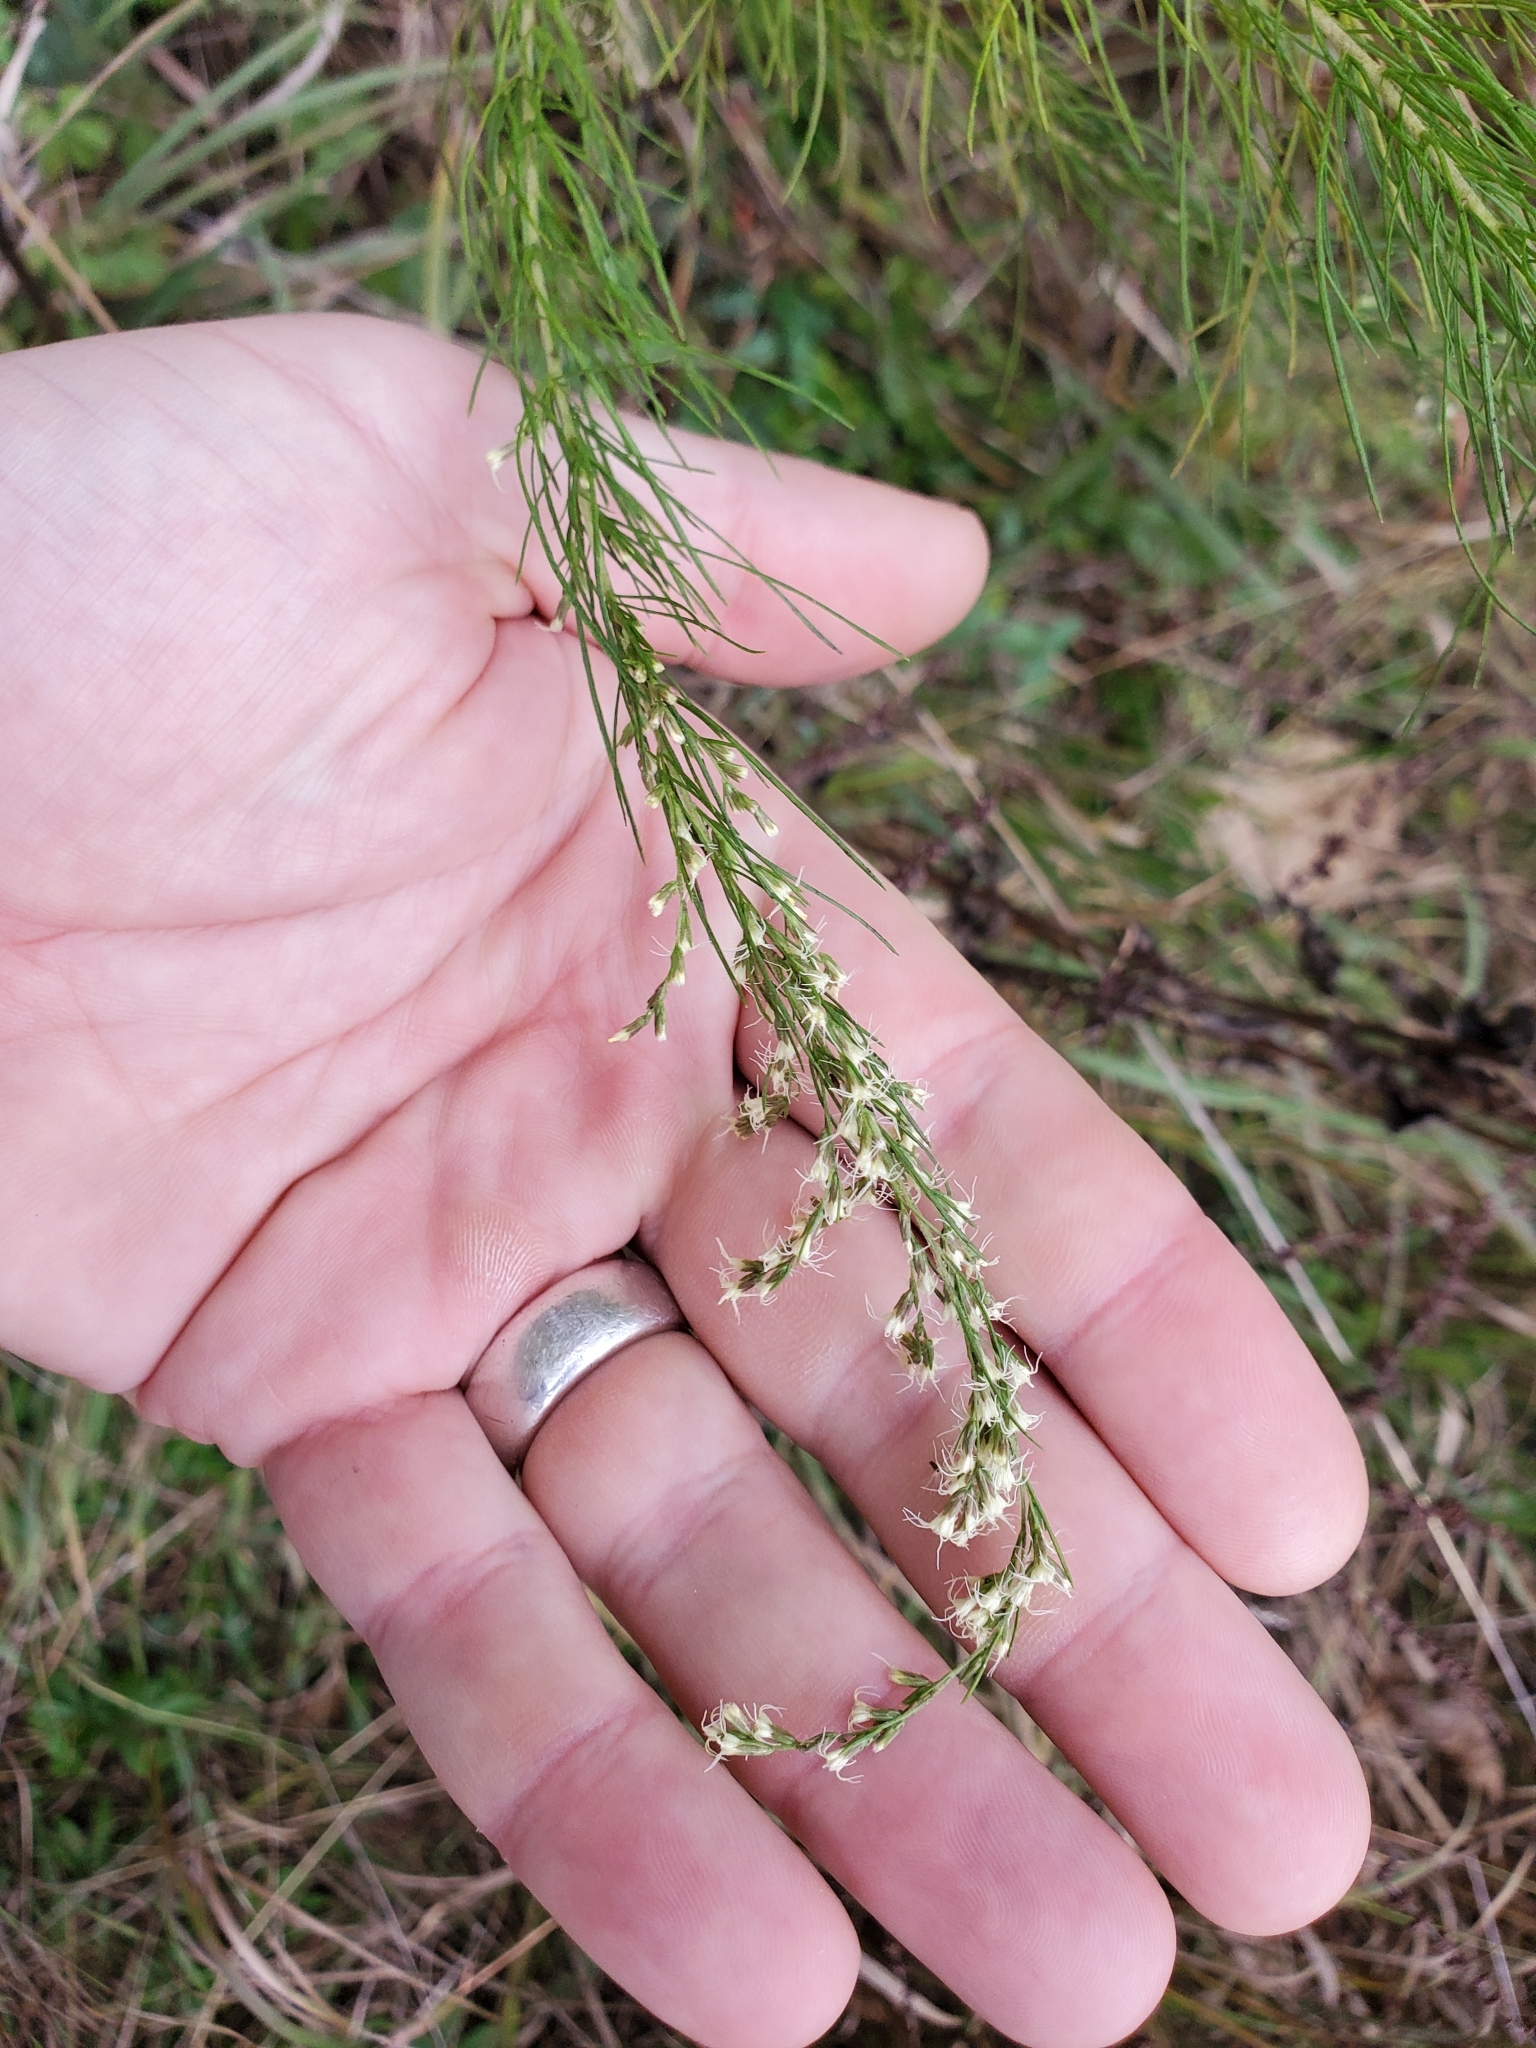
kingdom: Plantae
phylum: Tracheophyta
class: Magnoliopsida
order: Asterales
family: Asteraceae
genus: Eupatorium
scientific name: Eupatorium capillifolium
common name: Dog-fennel
